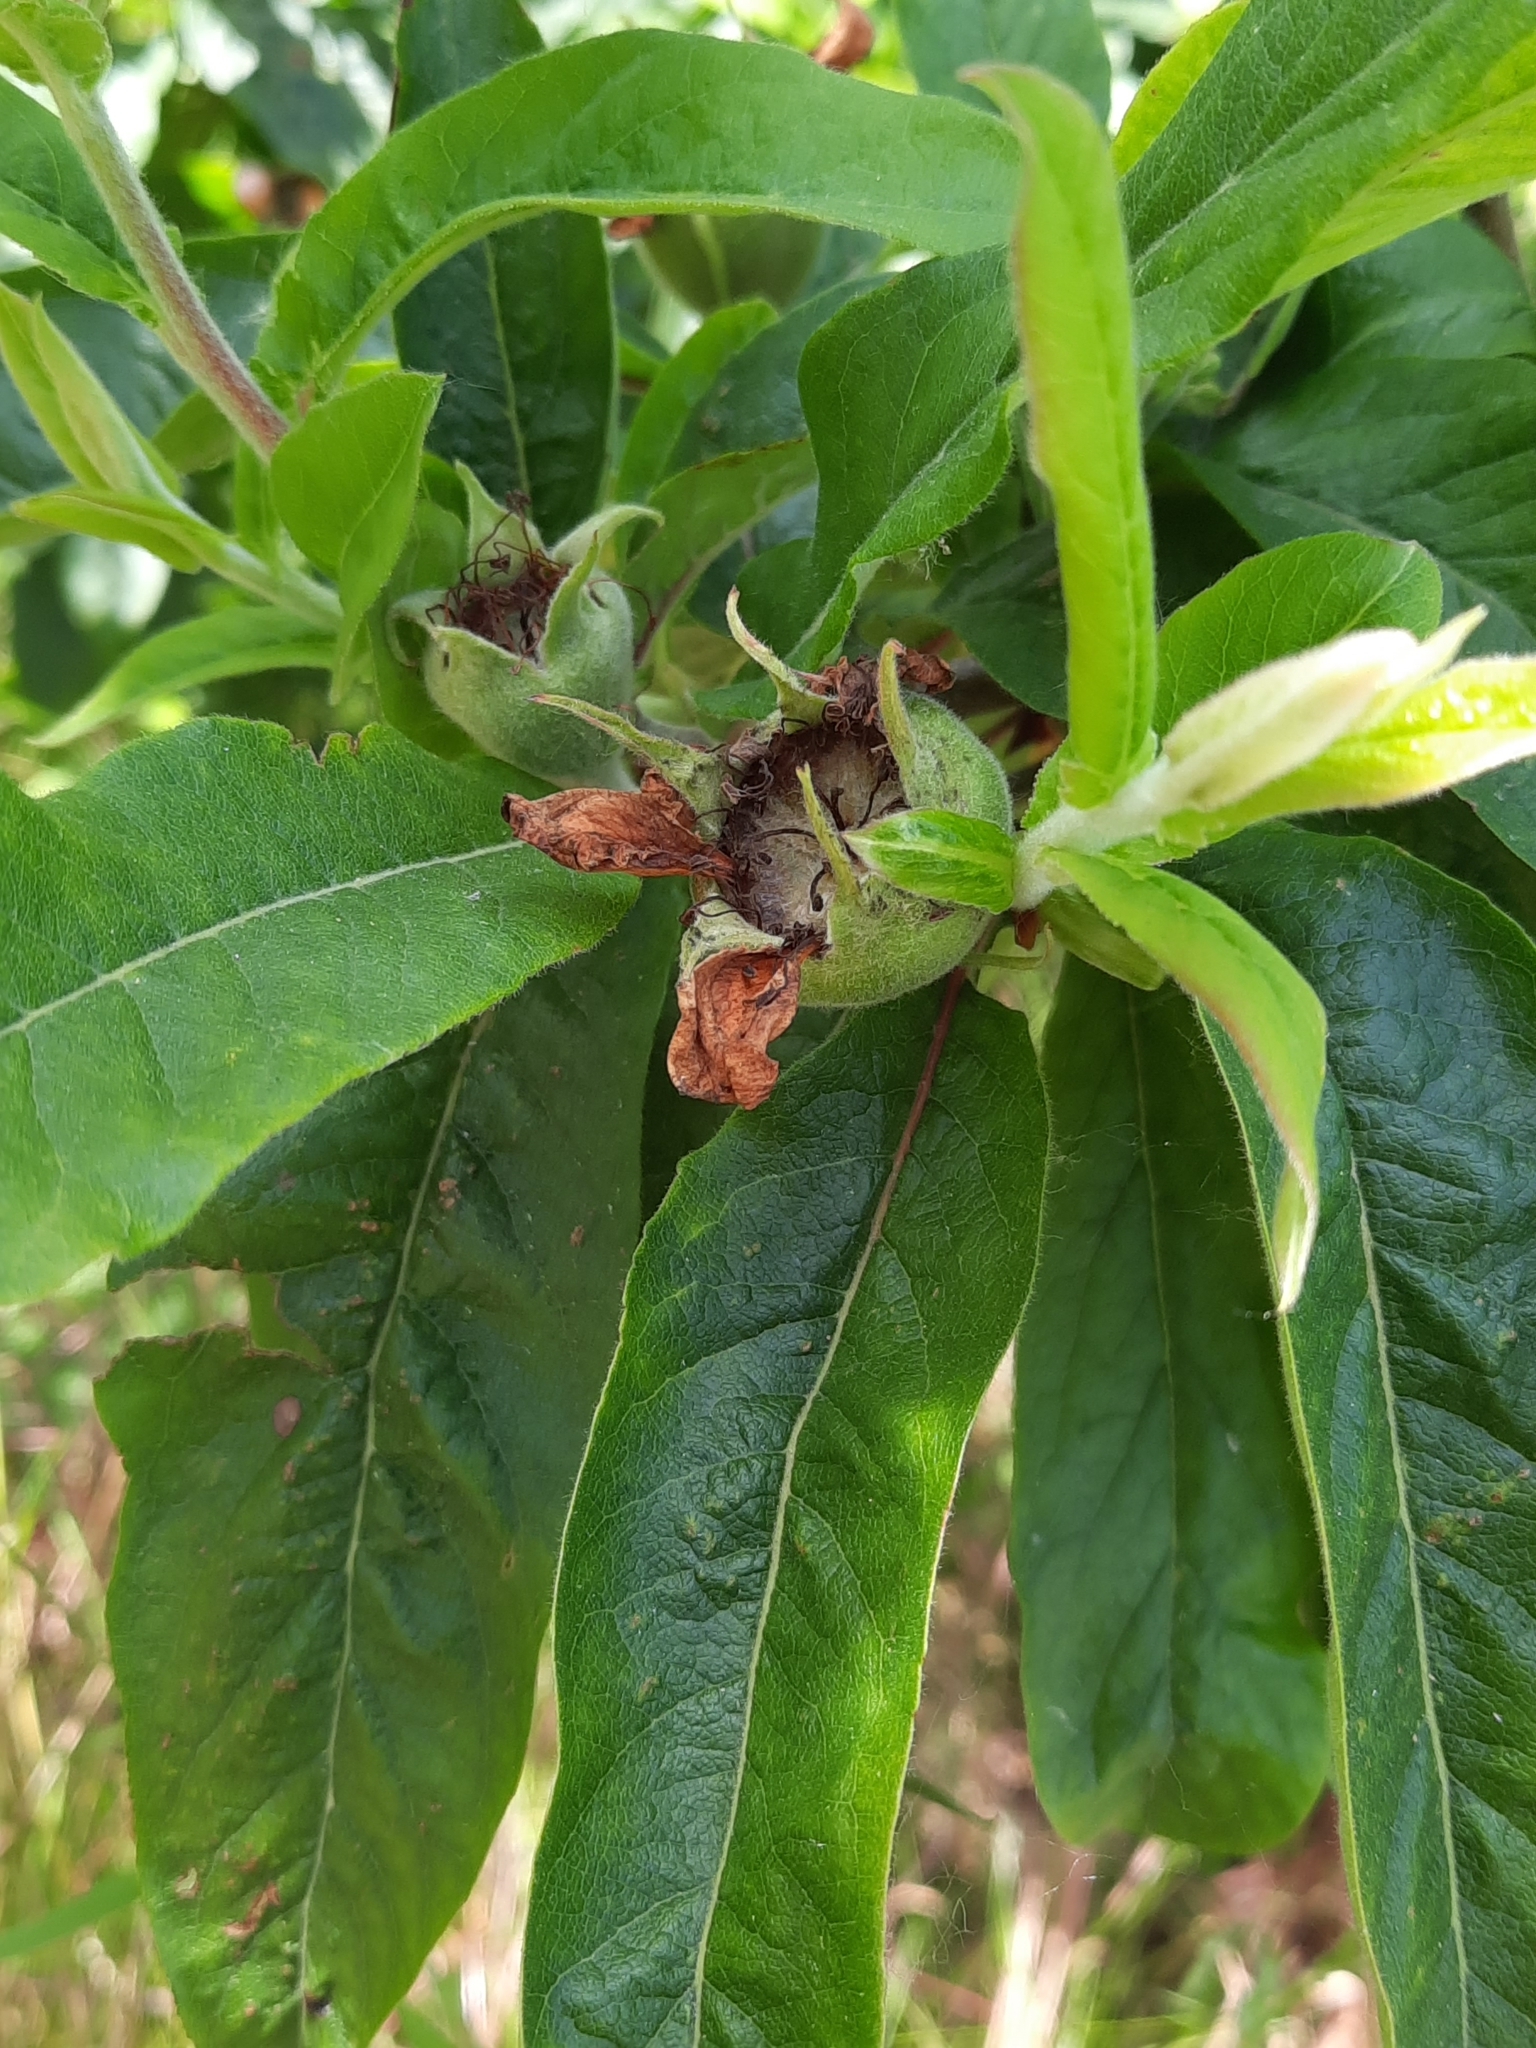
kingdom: Plantae
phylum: Tracheophyta
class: Magnoliopsida
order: Rosales
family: Rosaceae
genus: Mespilus
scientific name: Mespilus germanica
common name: Medlar
